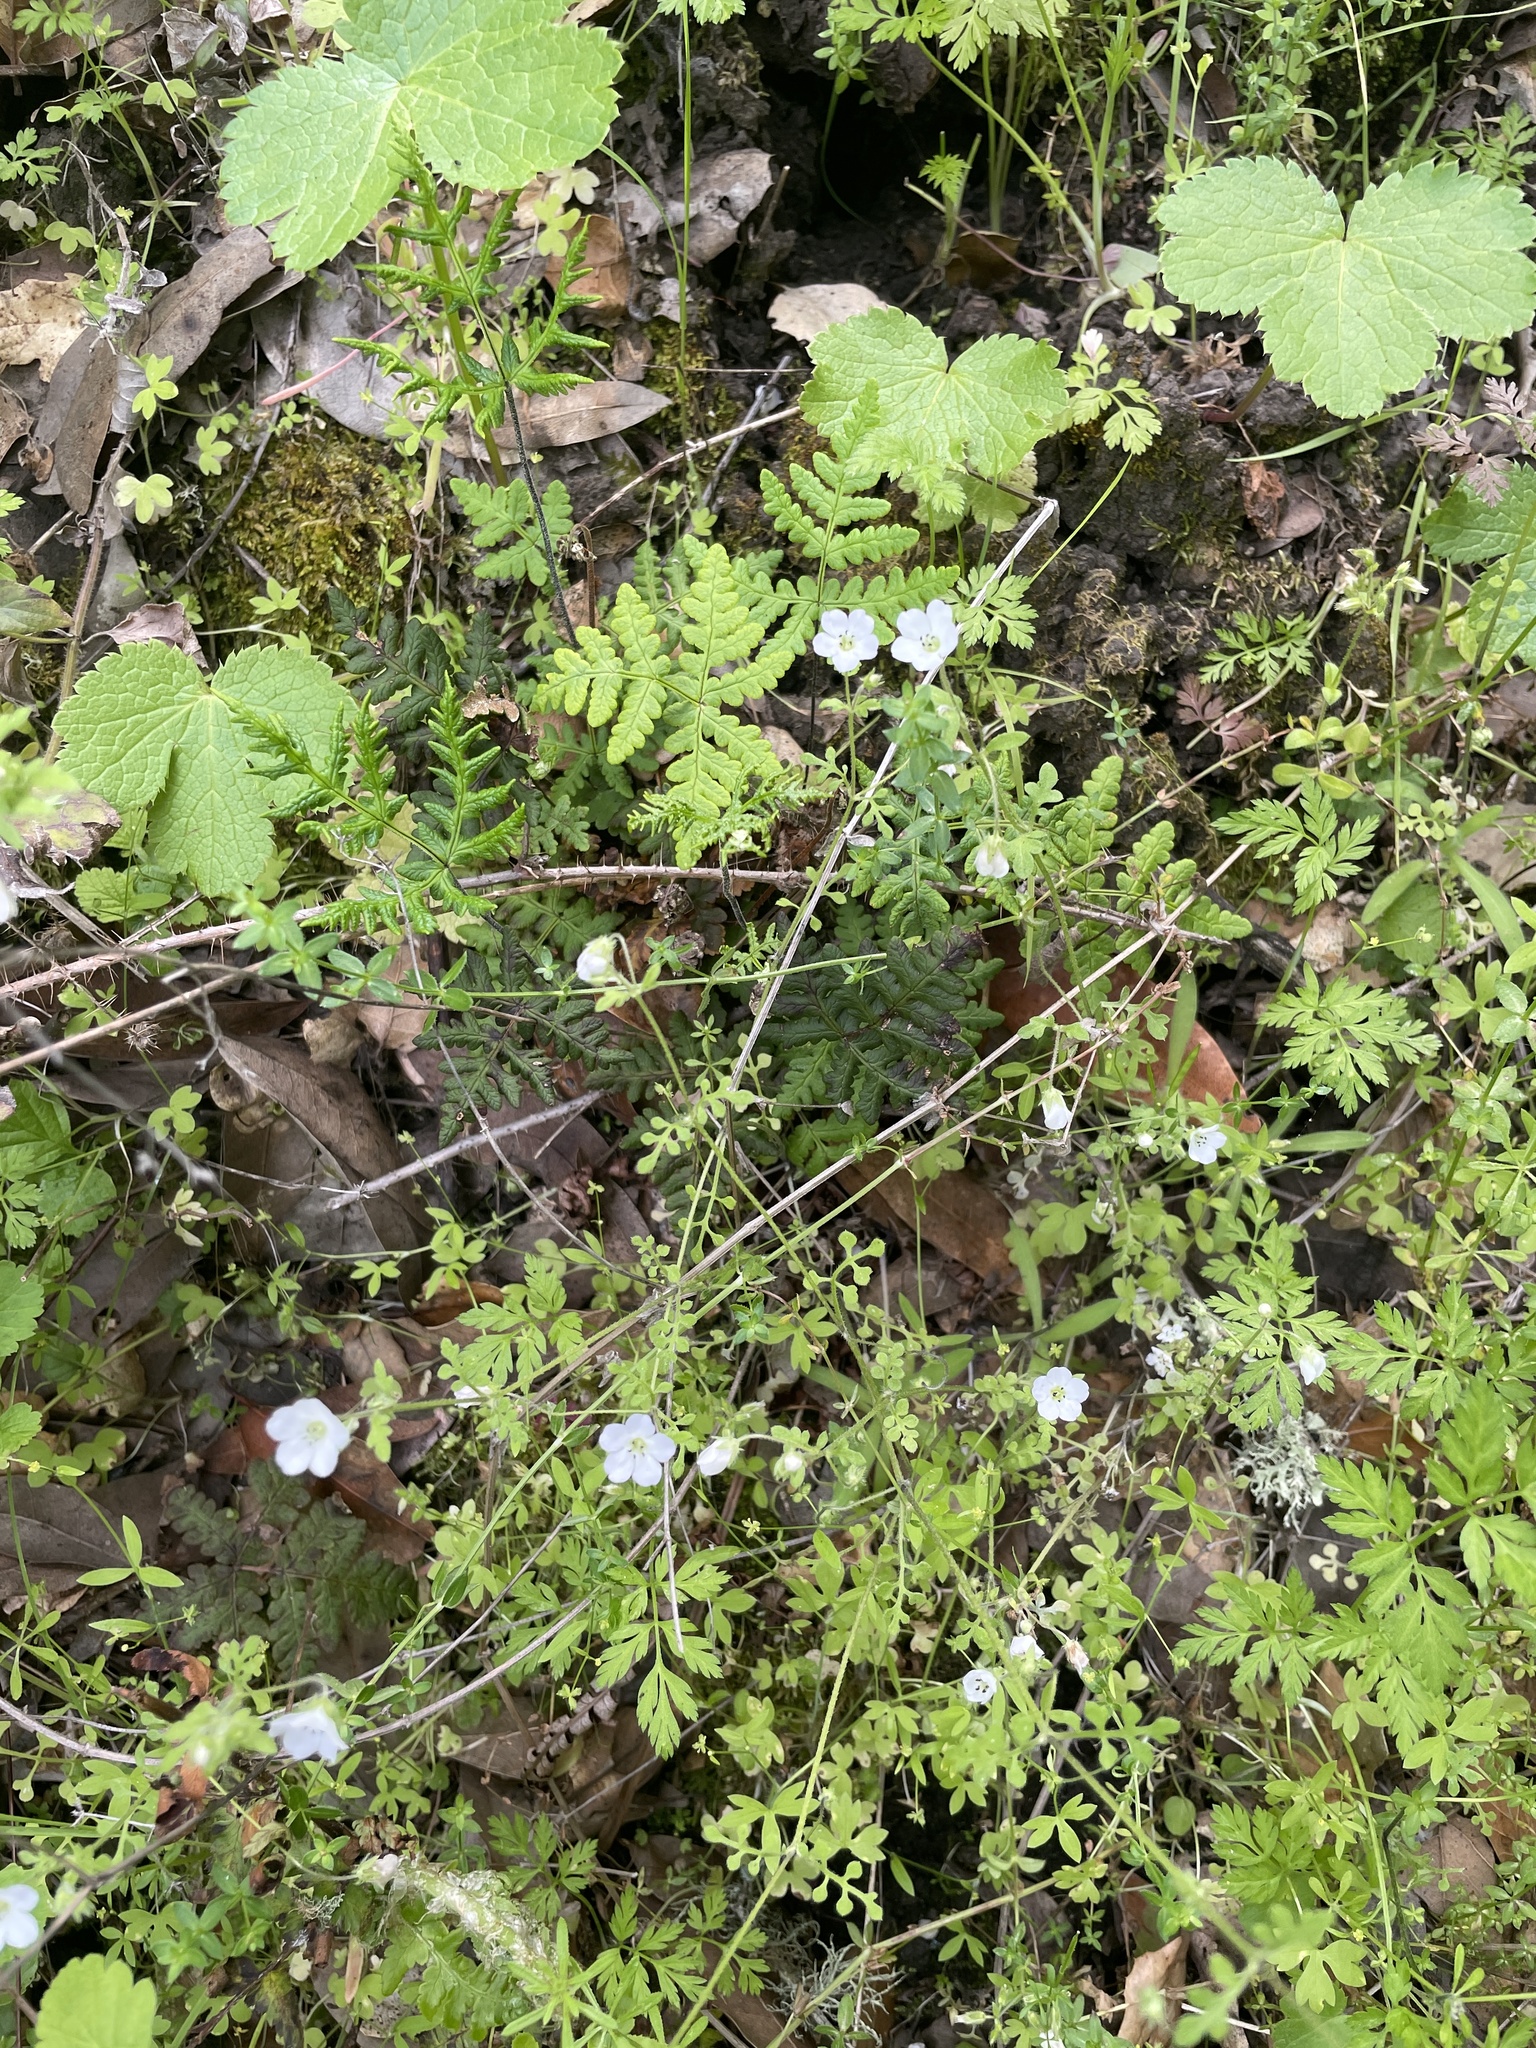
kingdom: Plantae
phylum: Tracheophyta
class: Polypodiopsida
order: Polypodiales
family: Pteridaceae
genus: Pentagramma
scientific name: Pentagramma triangularis
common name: Gold fern
